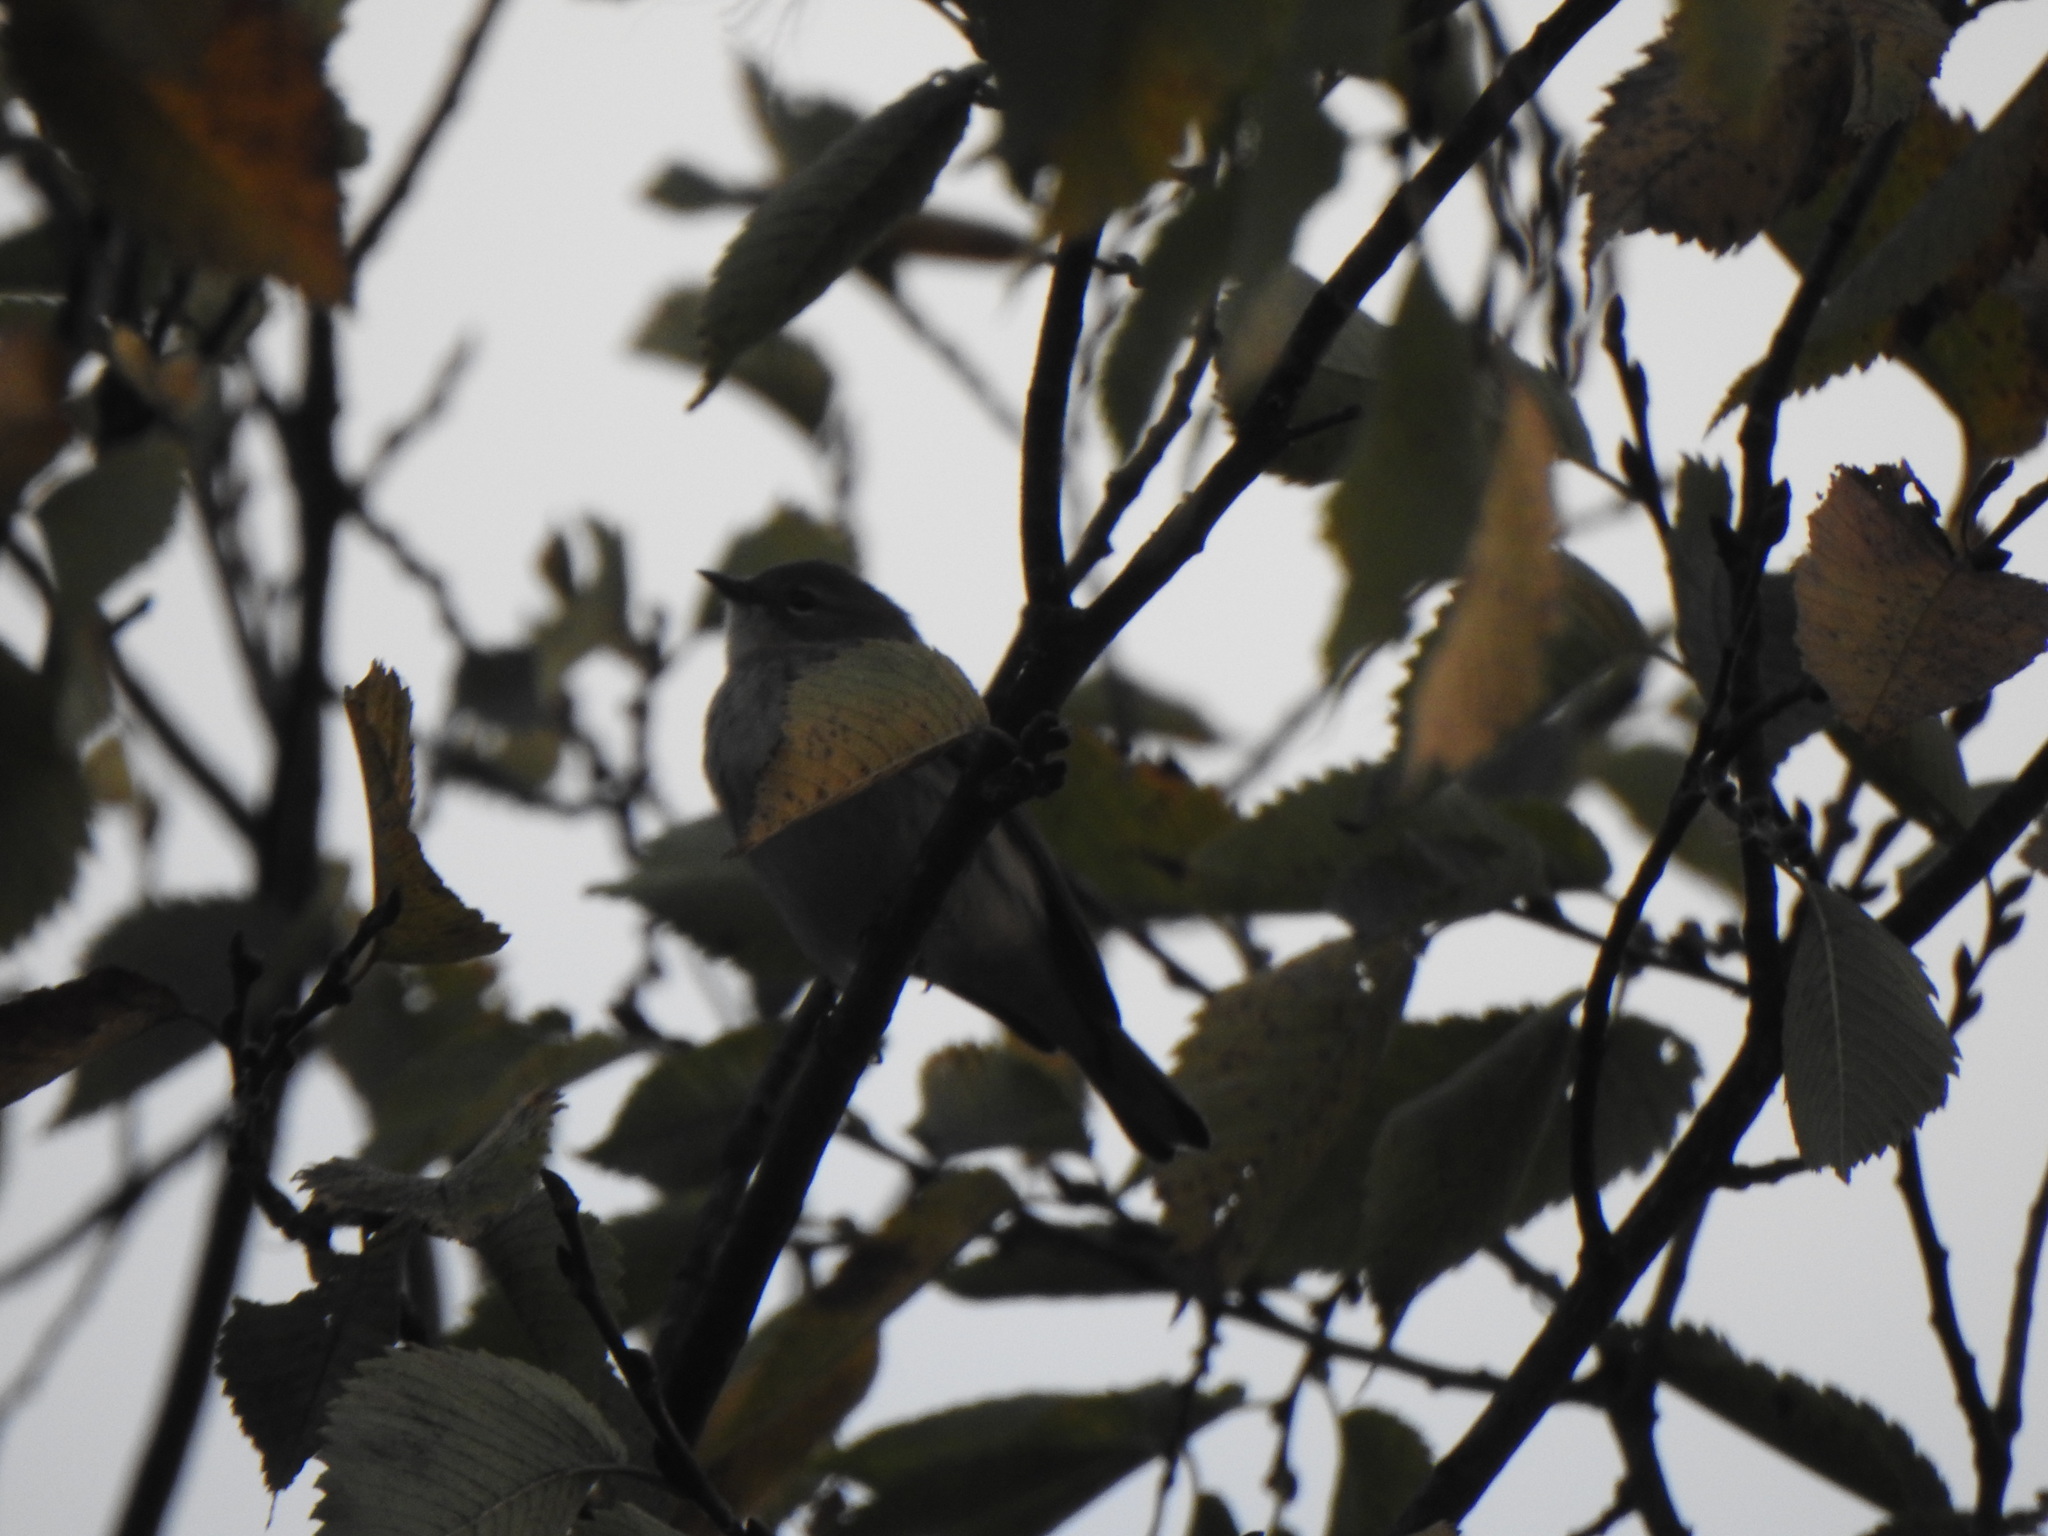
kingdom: Animalia
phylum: Chordata
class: Aves
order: Passeriformes
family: Parulidae
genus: Setophaga
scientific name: Setophaga coronata
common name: Myrtle warbler
